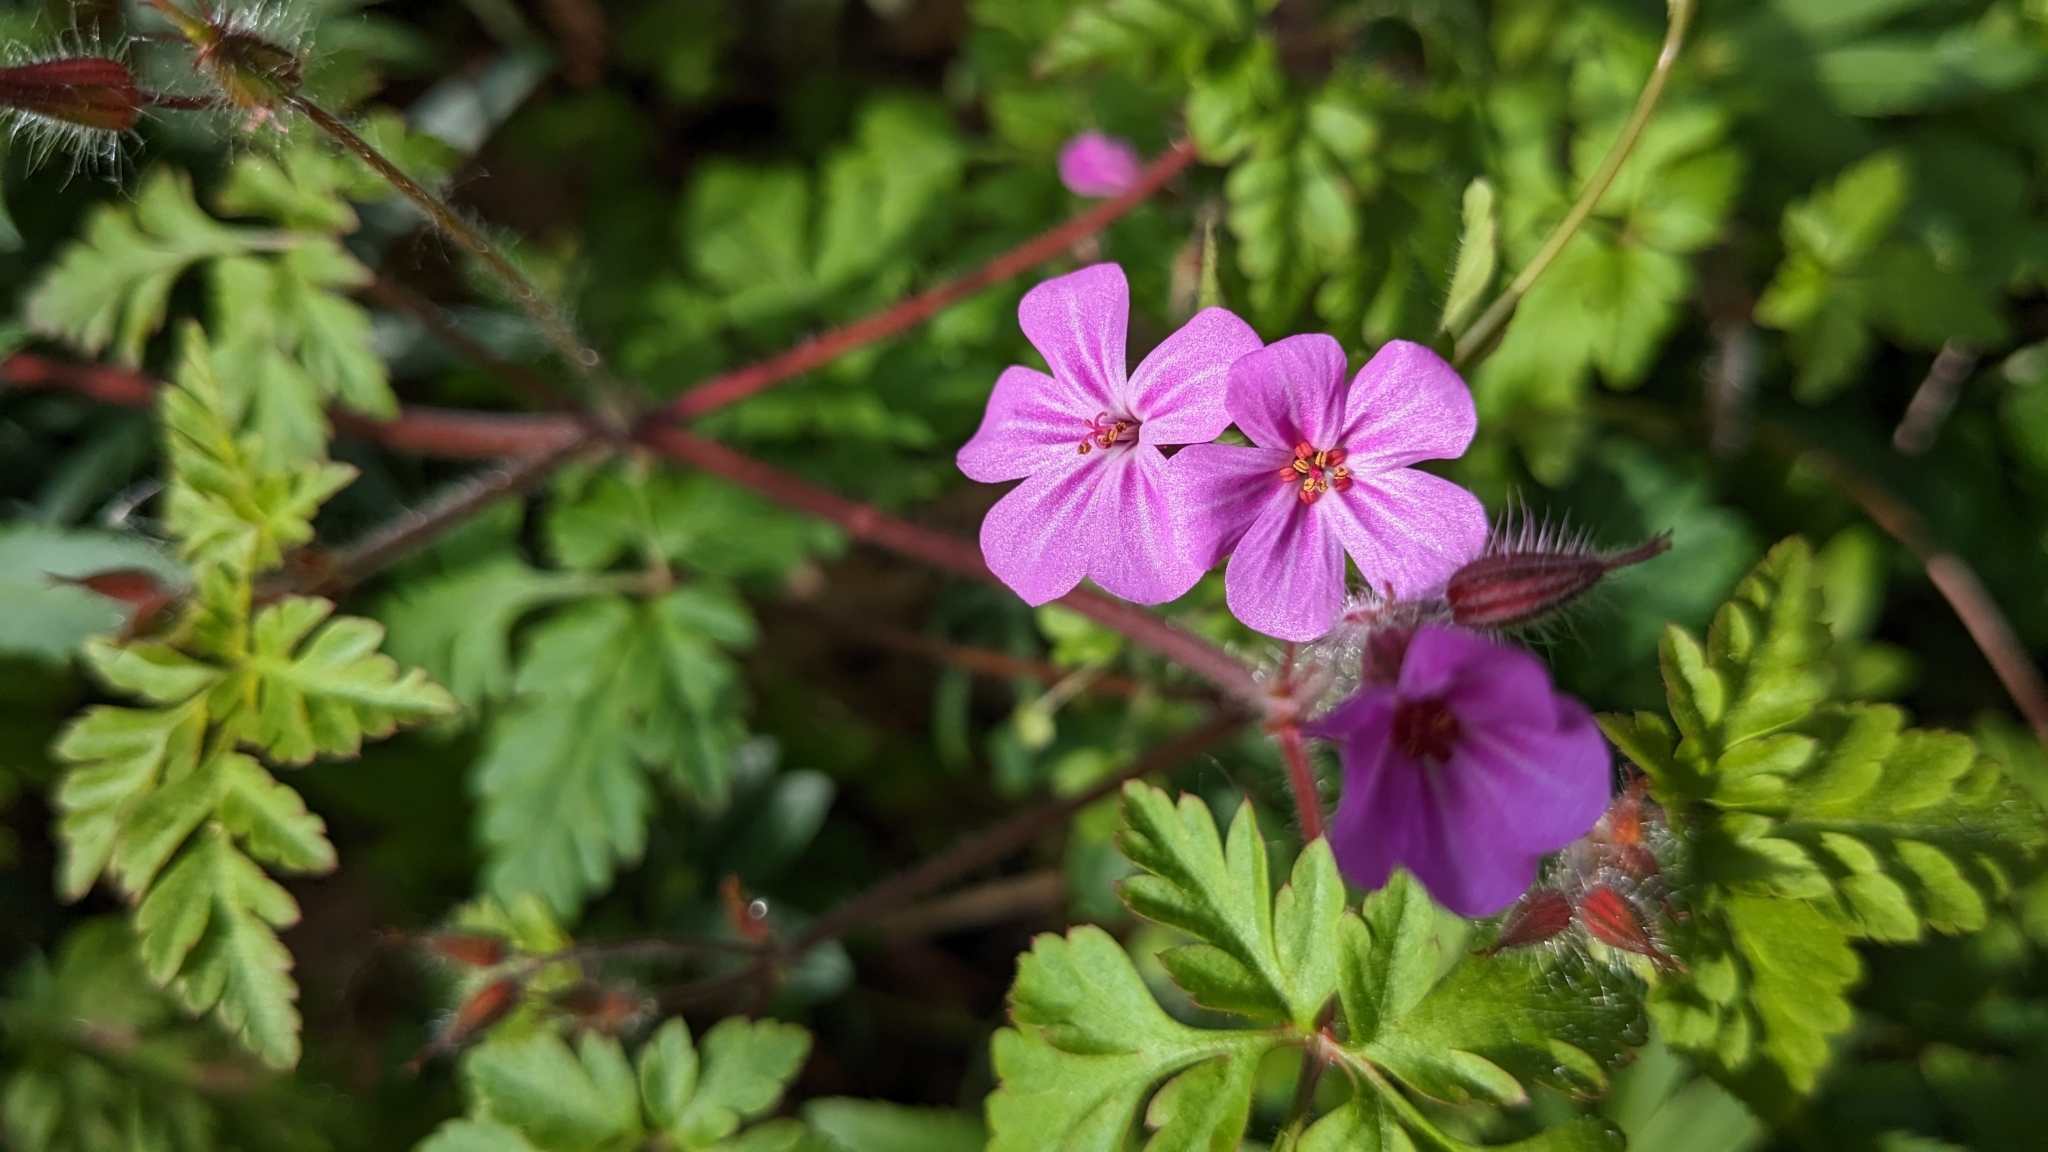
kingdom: Plantae
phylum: Tracheophyta
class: Magnoliopsida
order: Geraniales
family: Geraniaceae
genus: Geranium
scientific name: Geranium robertianum
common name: Herb-robert
